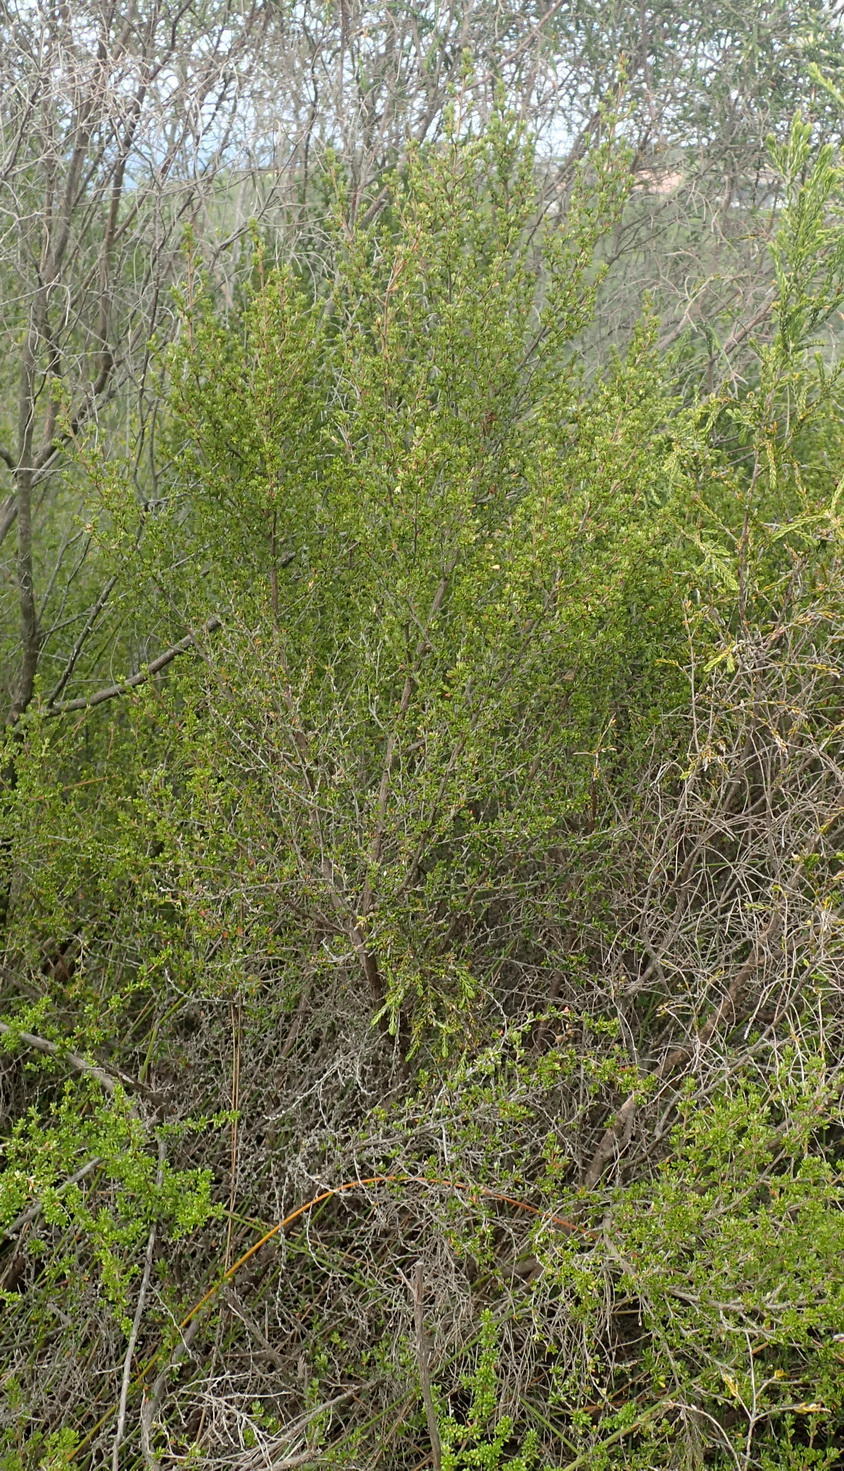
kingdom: Plantae
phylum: Tracheophyta
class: Magnoliopsida
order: Rosales
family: Rosaceae
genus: Cliffortia
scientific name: Cliffortia serpyllifolia
